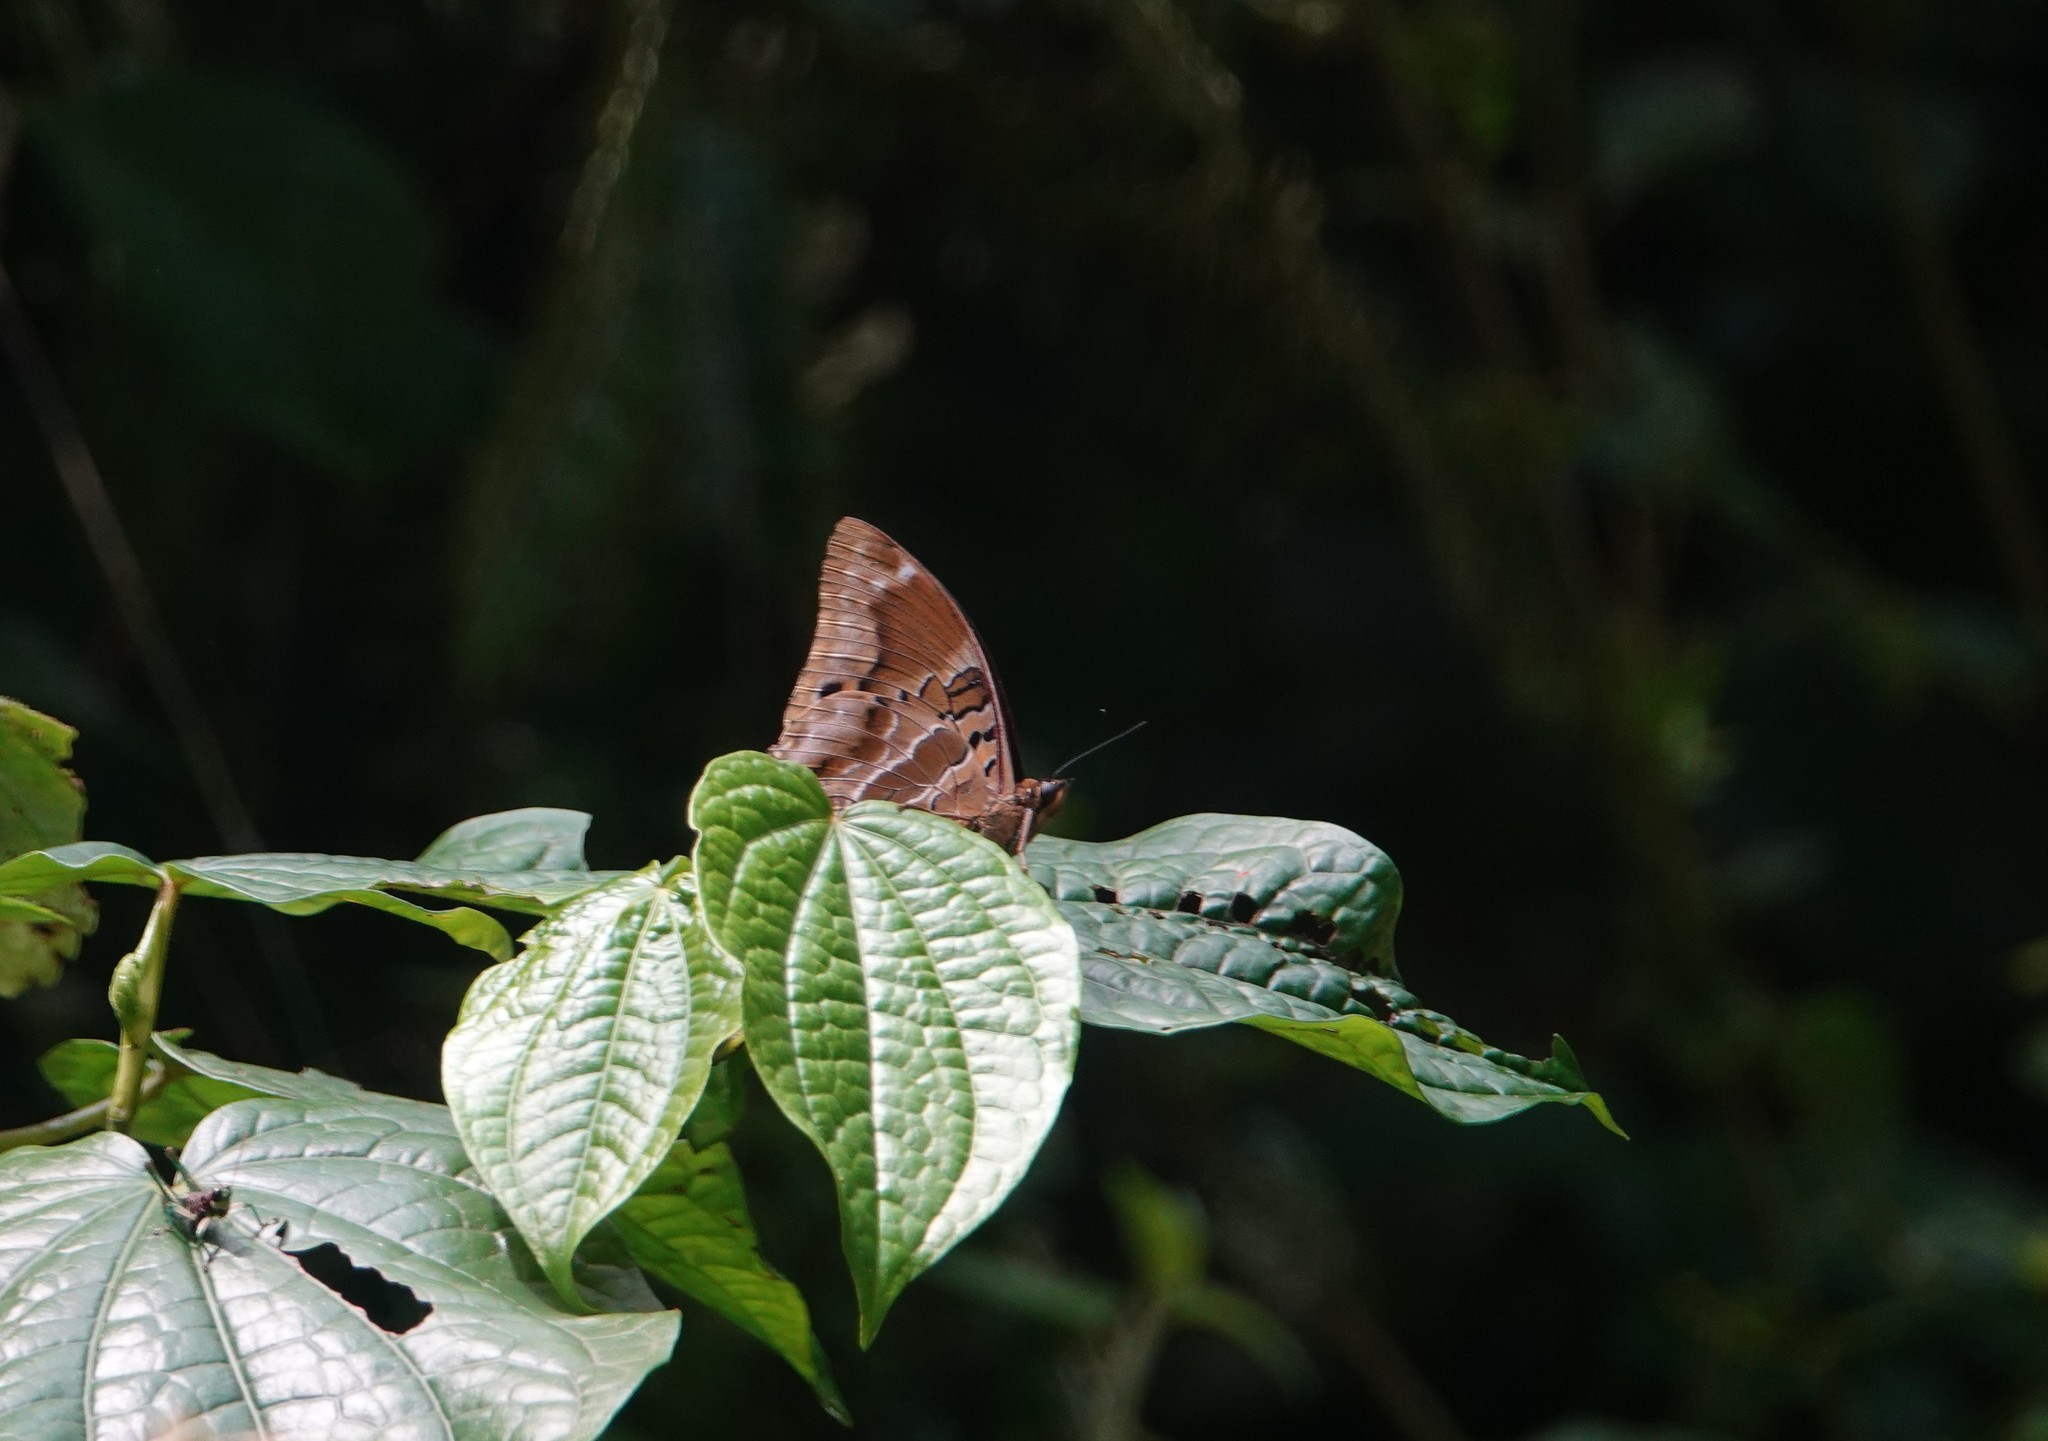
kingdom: Animalia
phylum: Arthropoda
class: Insecta
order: Lepidoptera
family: Nymphalidae
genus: Charaxes
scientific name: Charaxes numenes
